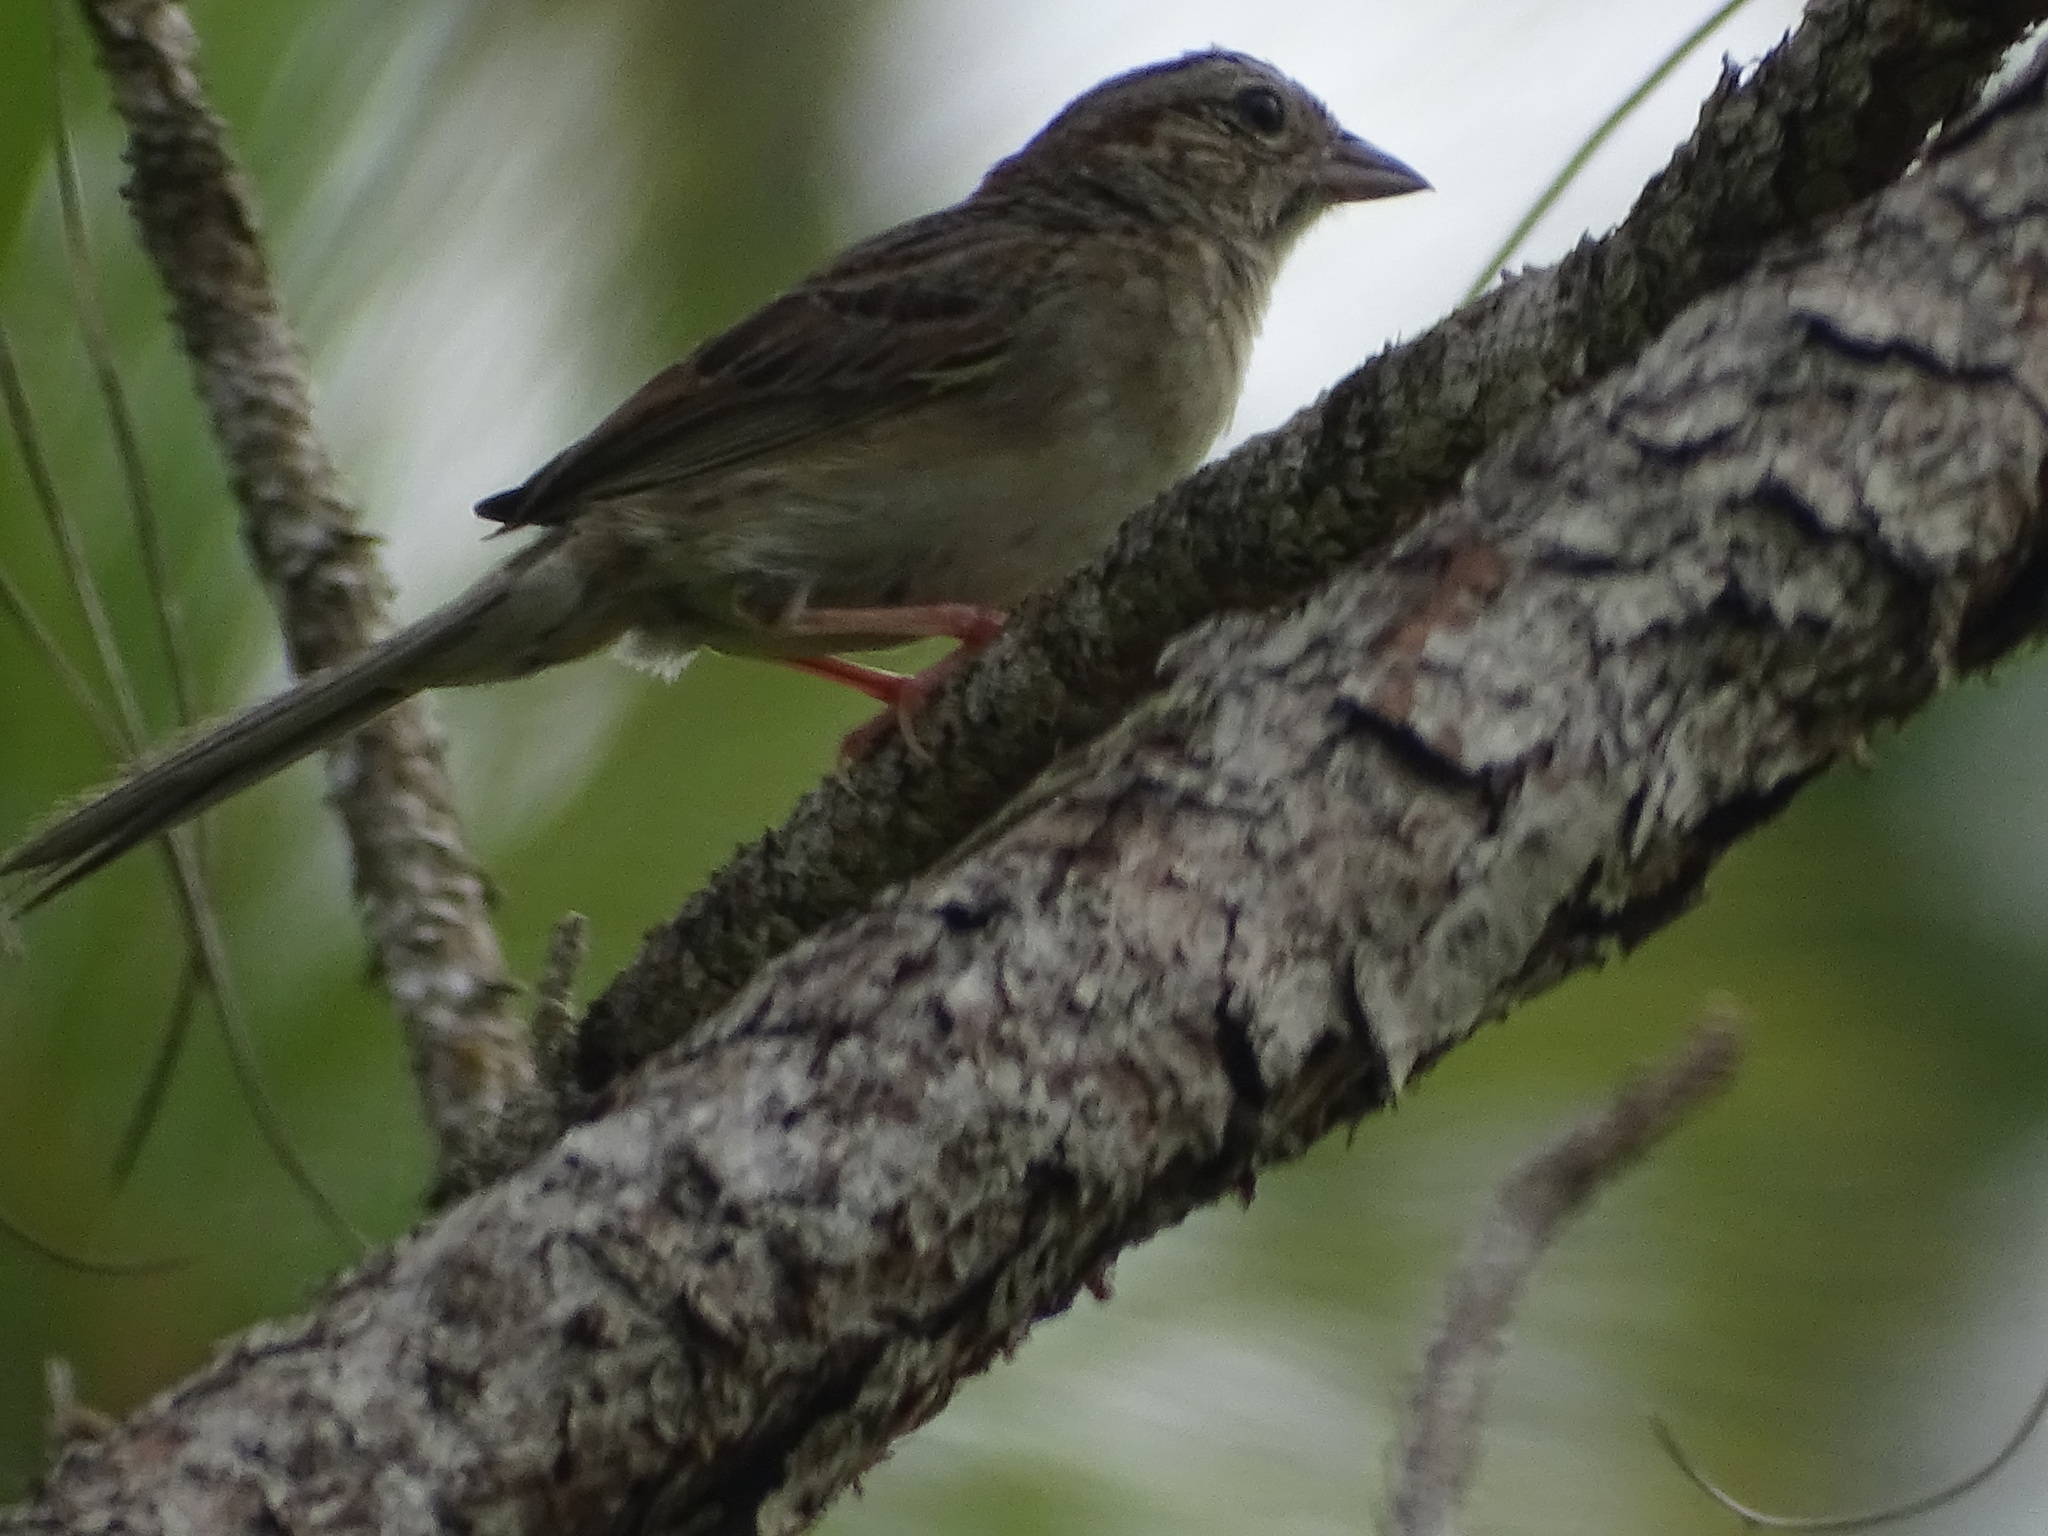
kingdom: Animalia
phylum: Chordata
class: Aves
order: Passeriformes
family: Passerellidae
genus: Peucaea
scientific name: Peucaea aestivalis
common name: Bachman's sparrow
